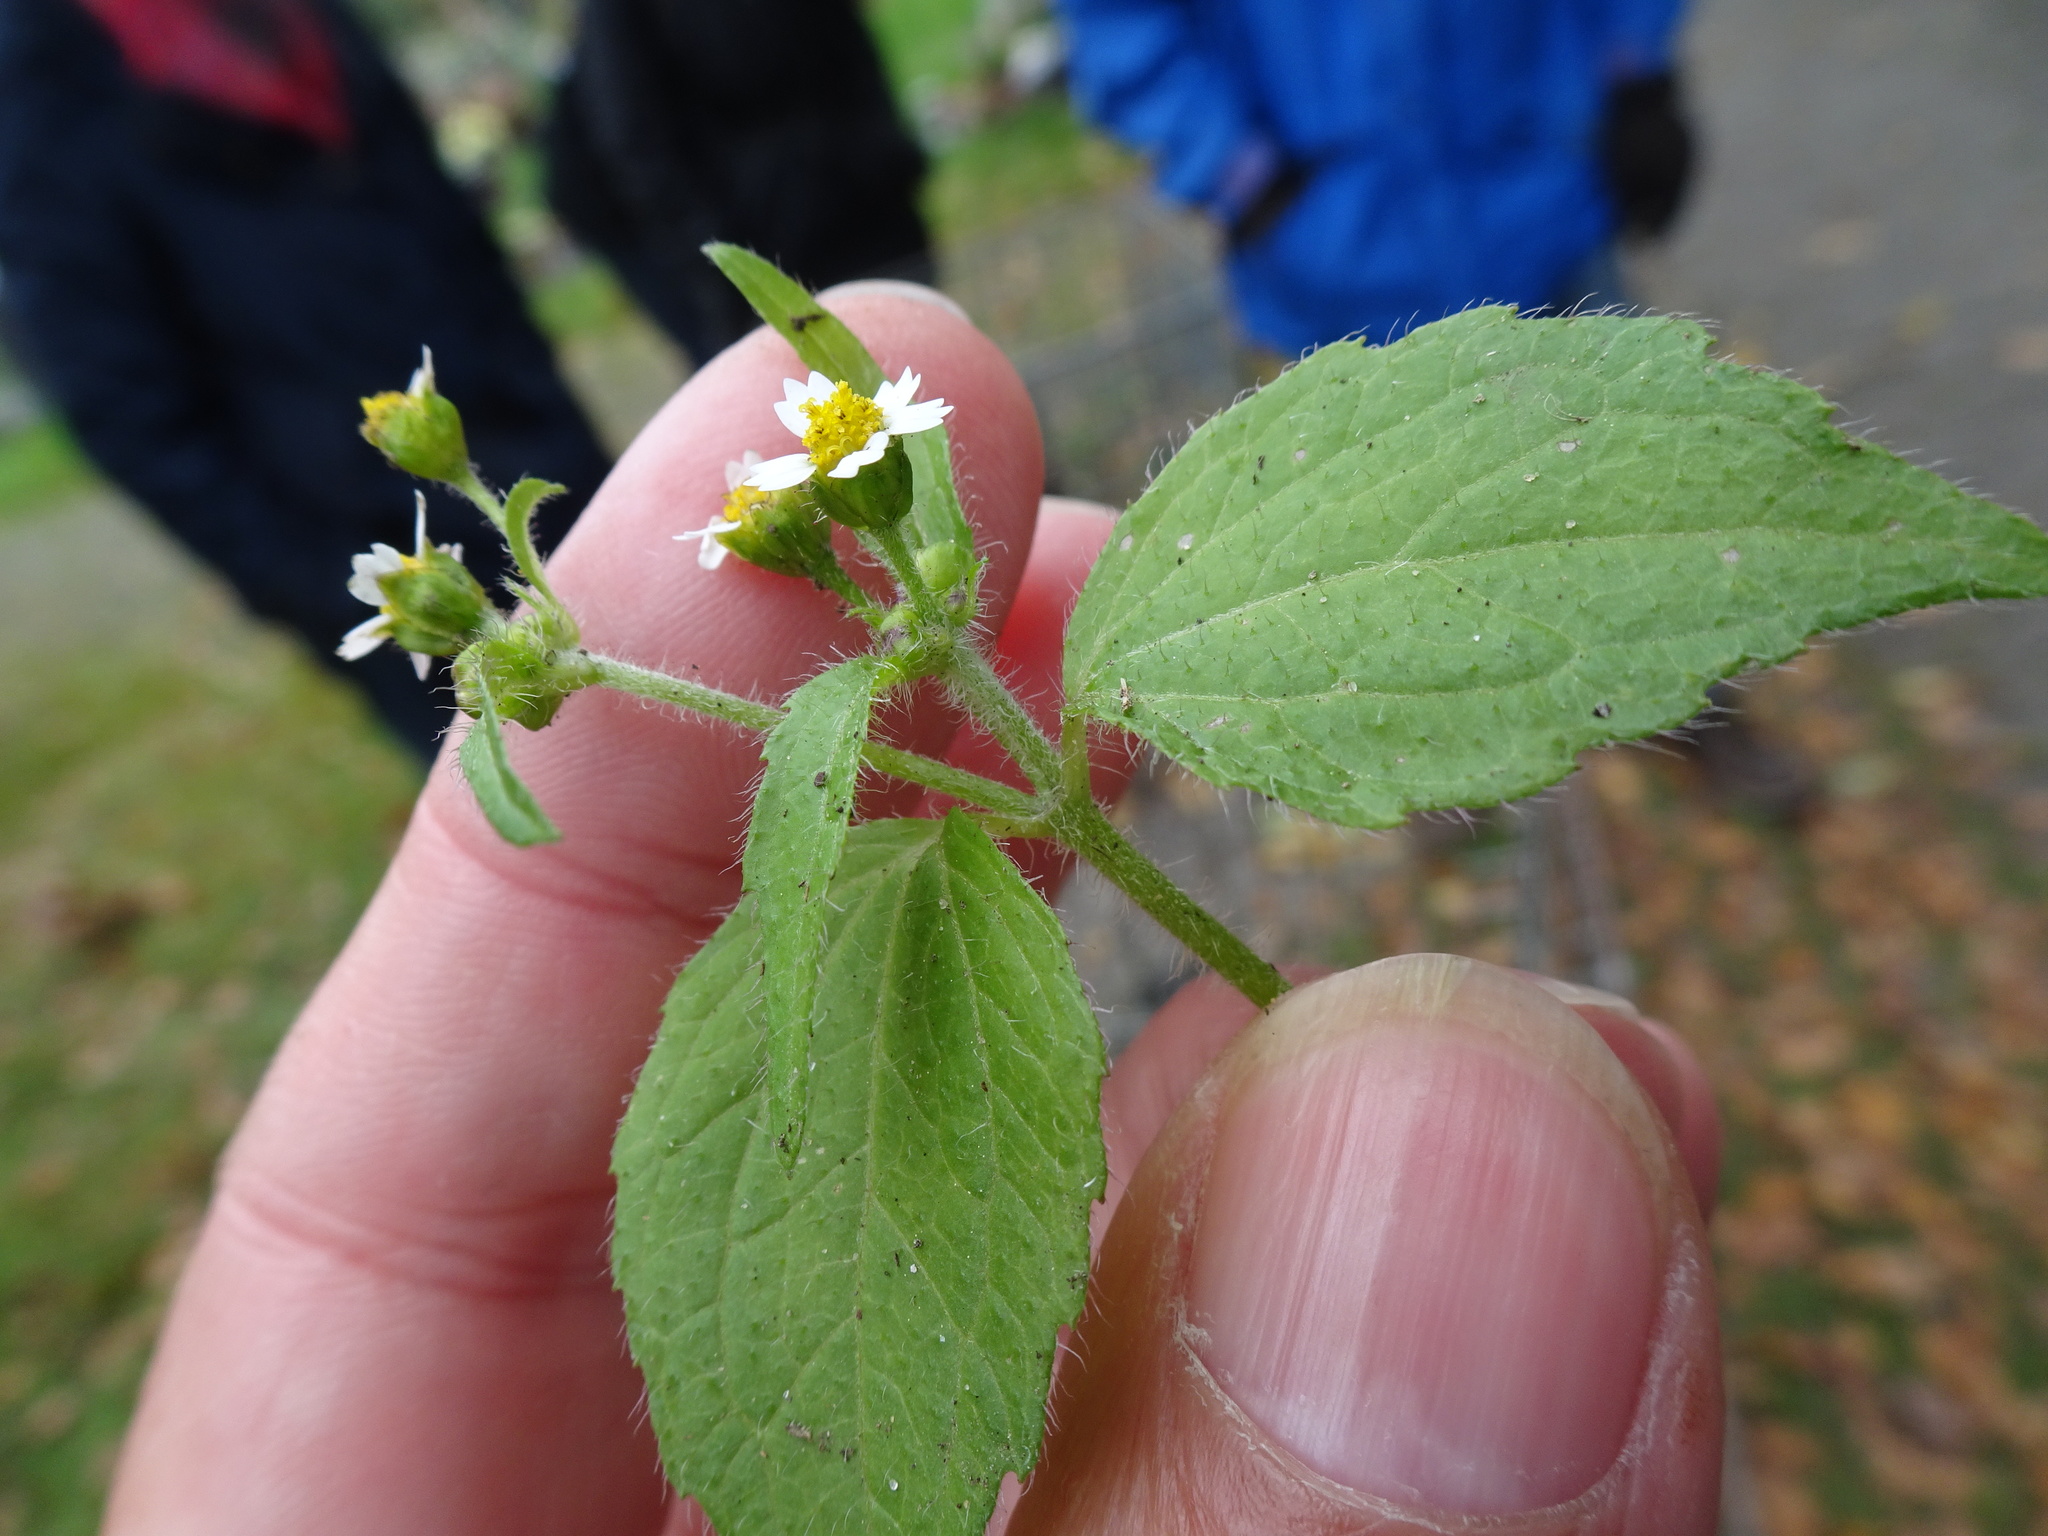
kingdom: Plantae
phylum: Tracheophyta
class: Magnoliopsida
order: Asterales
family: Asteraceae
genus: Galinsoga
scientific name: Galinsoga quadriradiata
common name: Shaggy soldier
